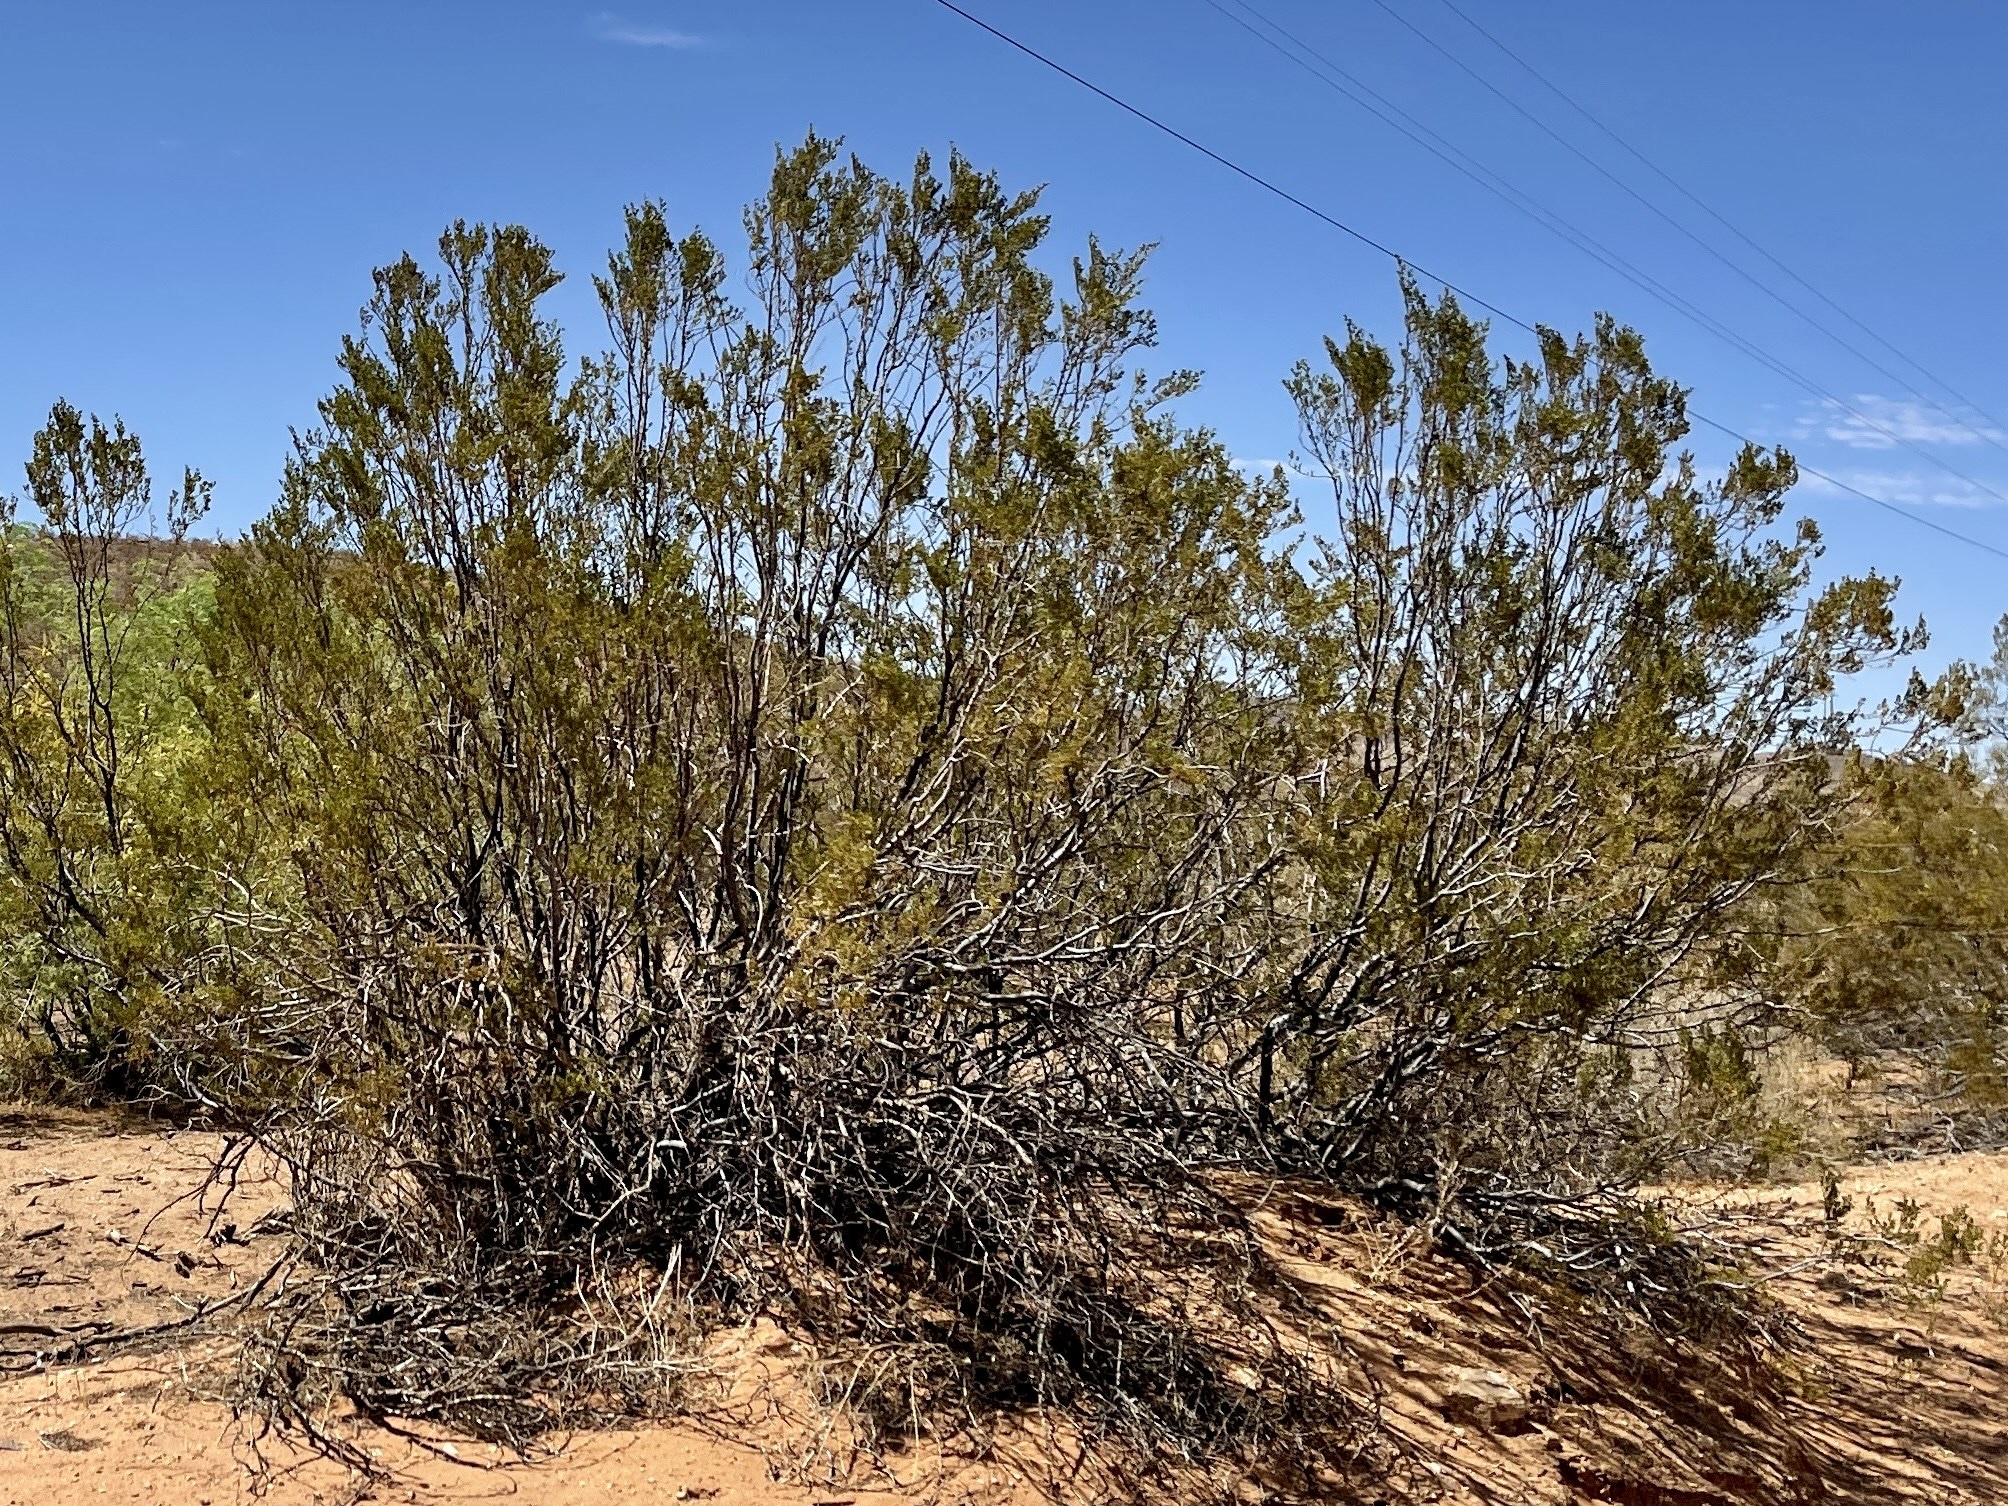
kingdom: Plantae
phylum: Tracheophyta
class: Magnoliopsida
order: Zygophyllales
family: Zygophyllaceae
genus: Larrea
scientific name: Larrea tridentata
